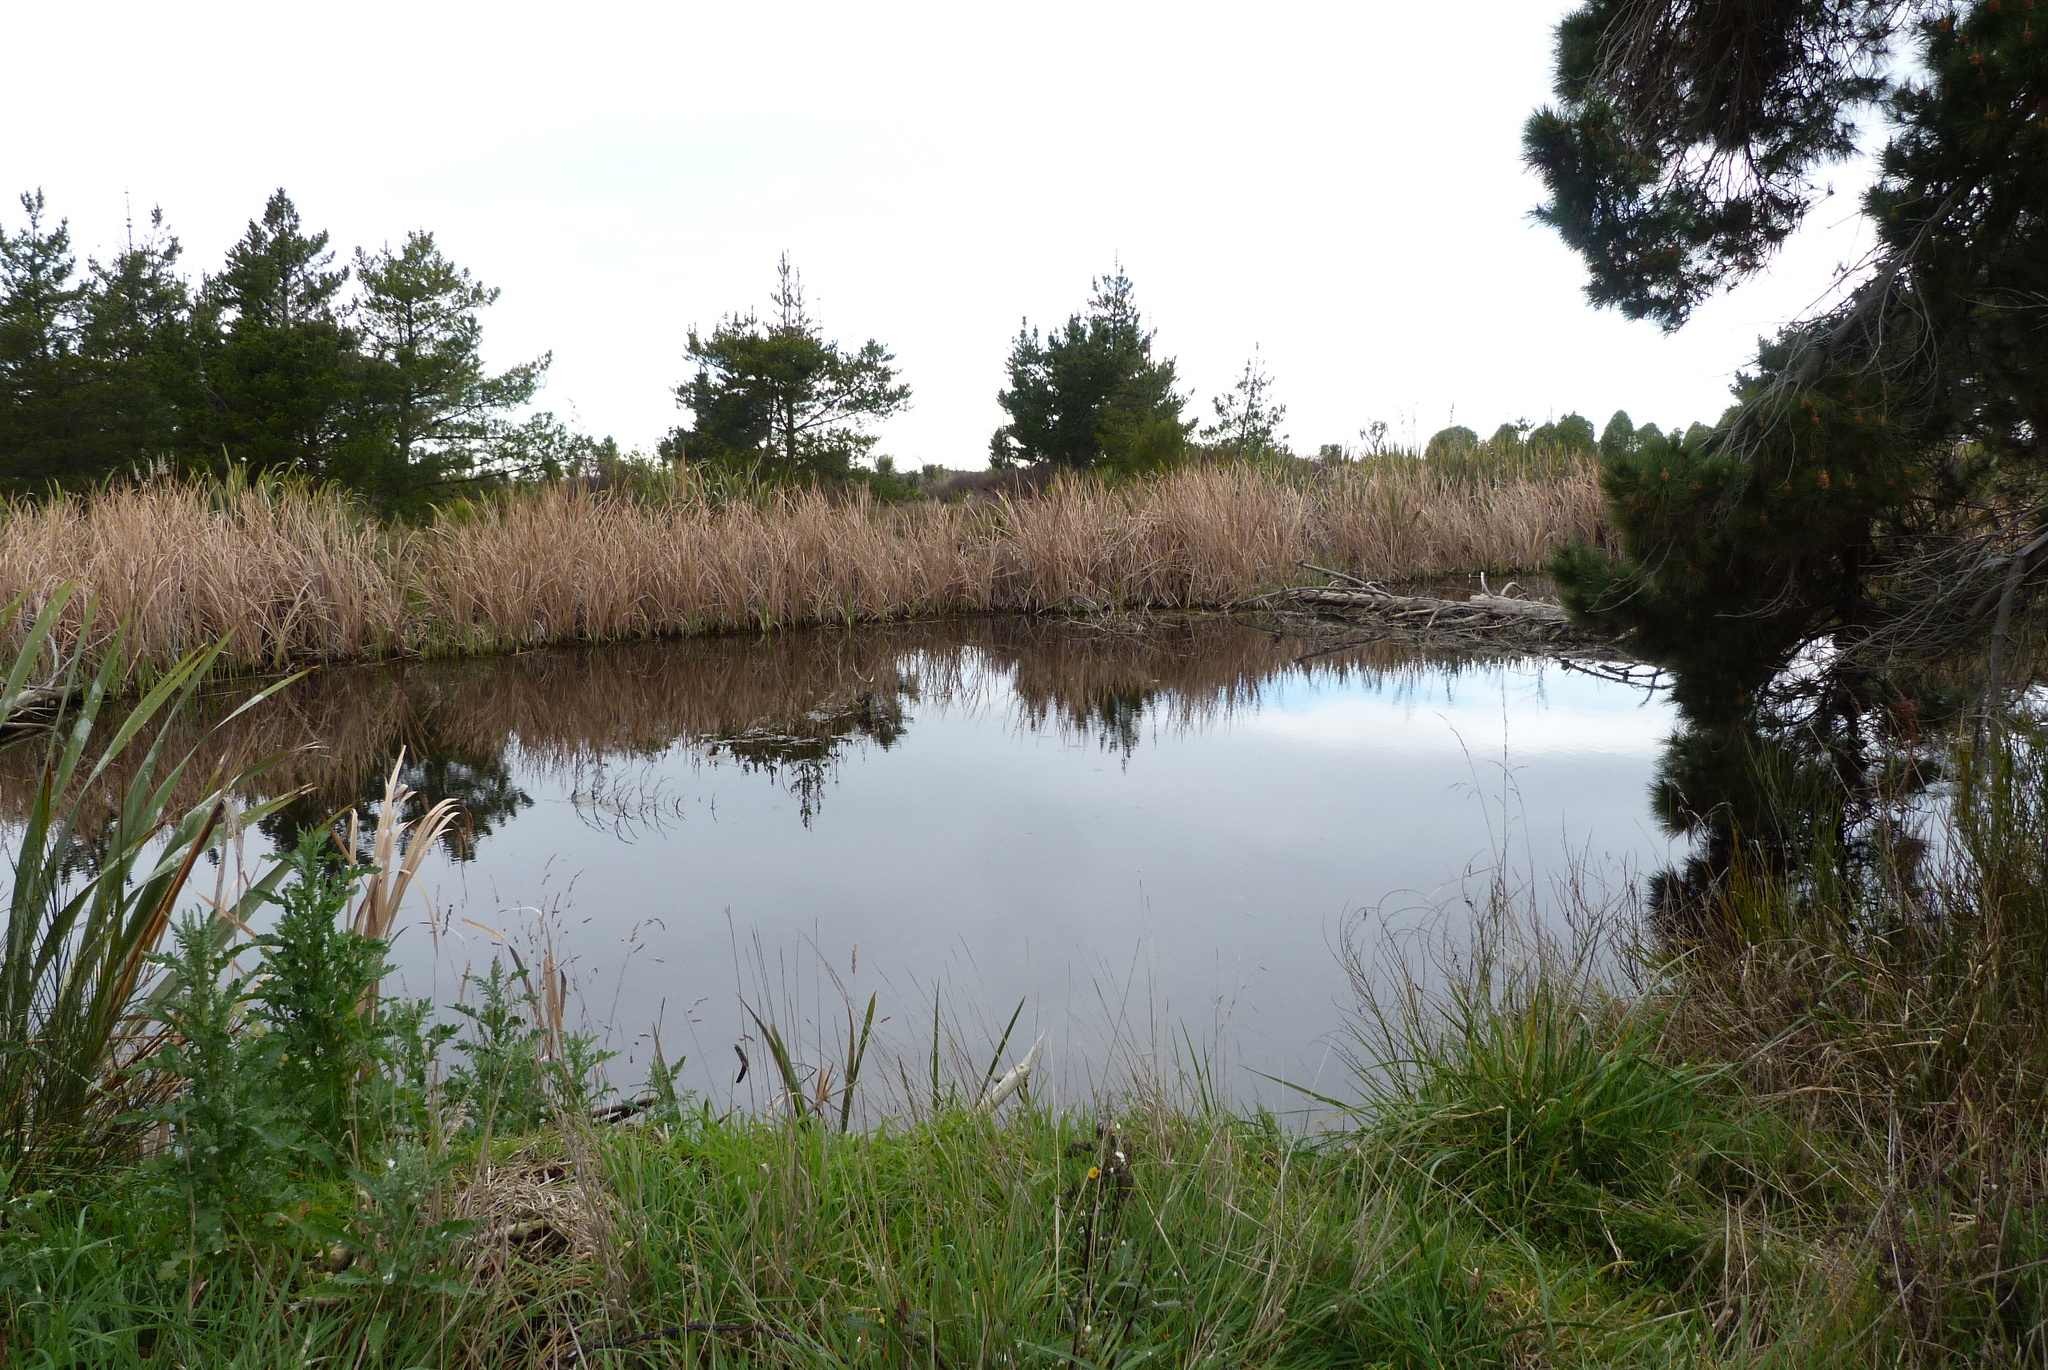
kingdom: Plantae
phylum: Tracheophyta
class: Liliopsida
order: Poales
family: Typhaceae
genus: Typha
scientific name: Typha orientalis
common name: Bullrush
